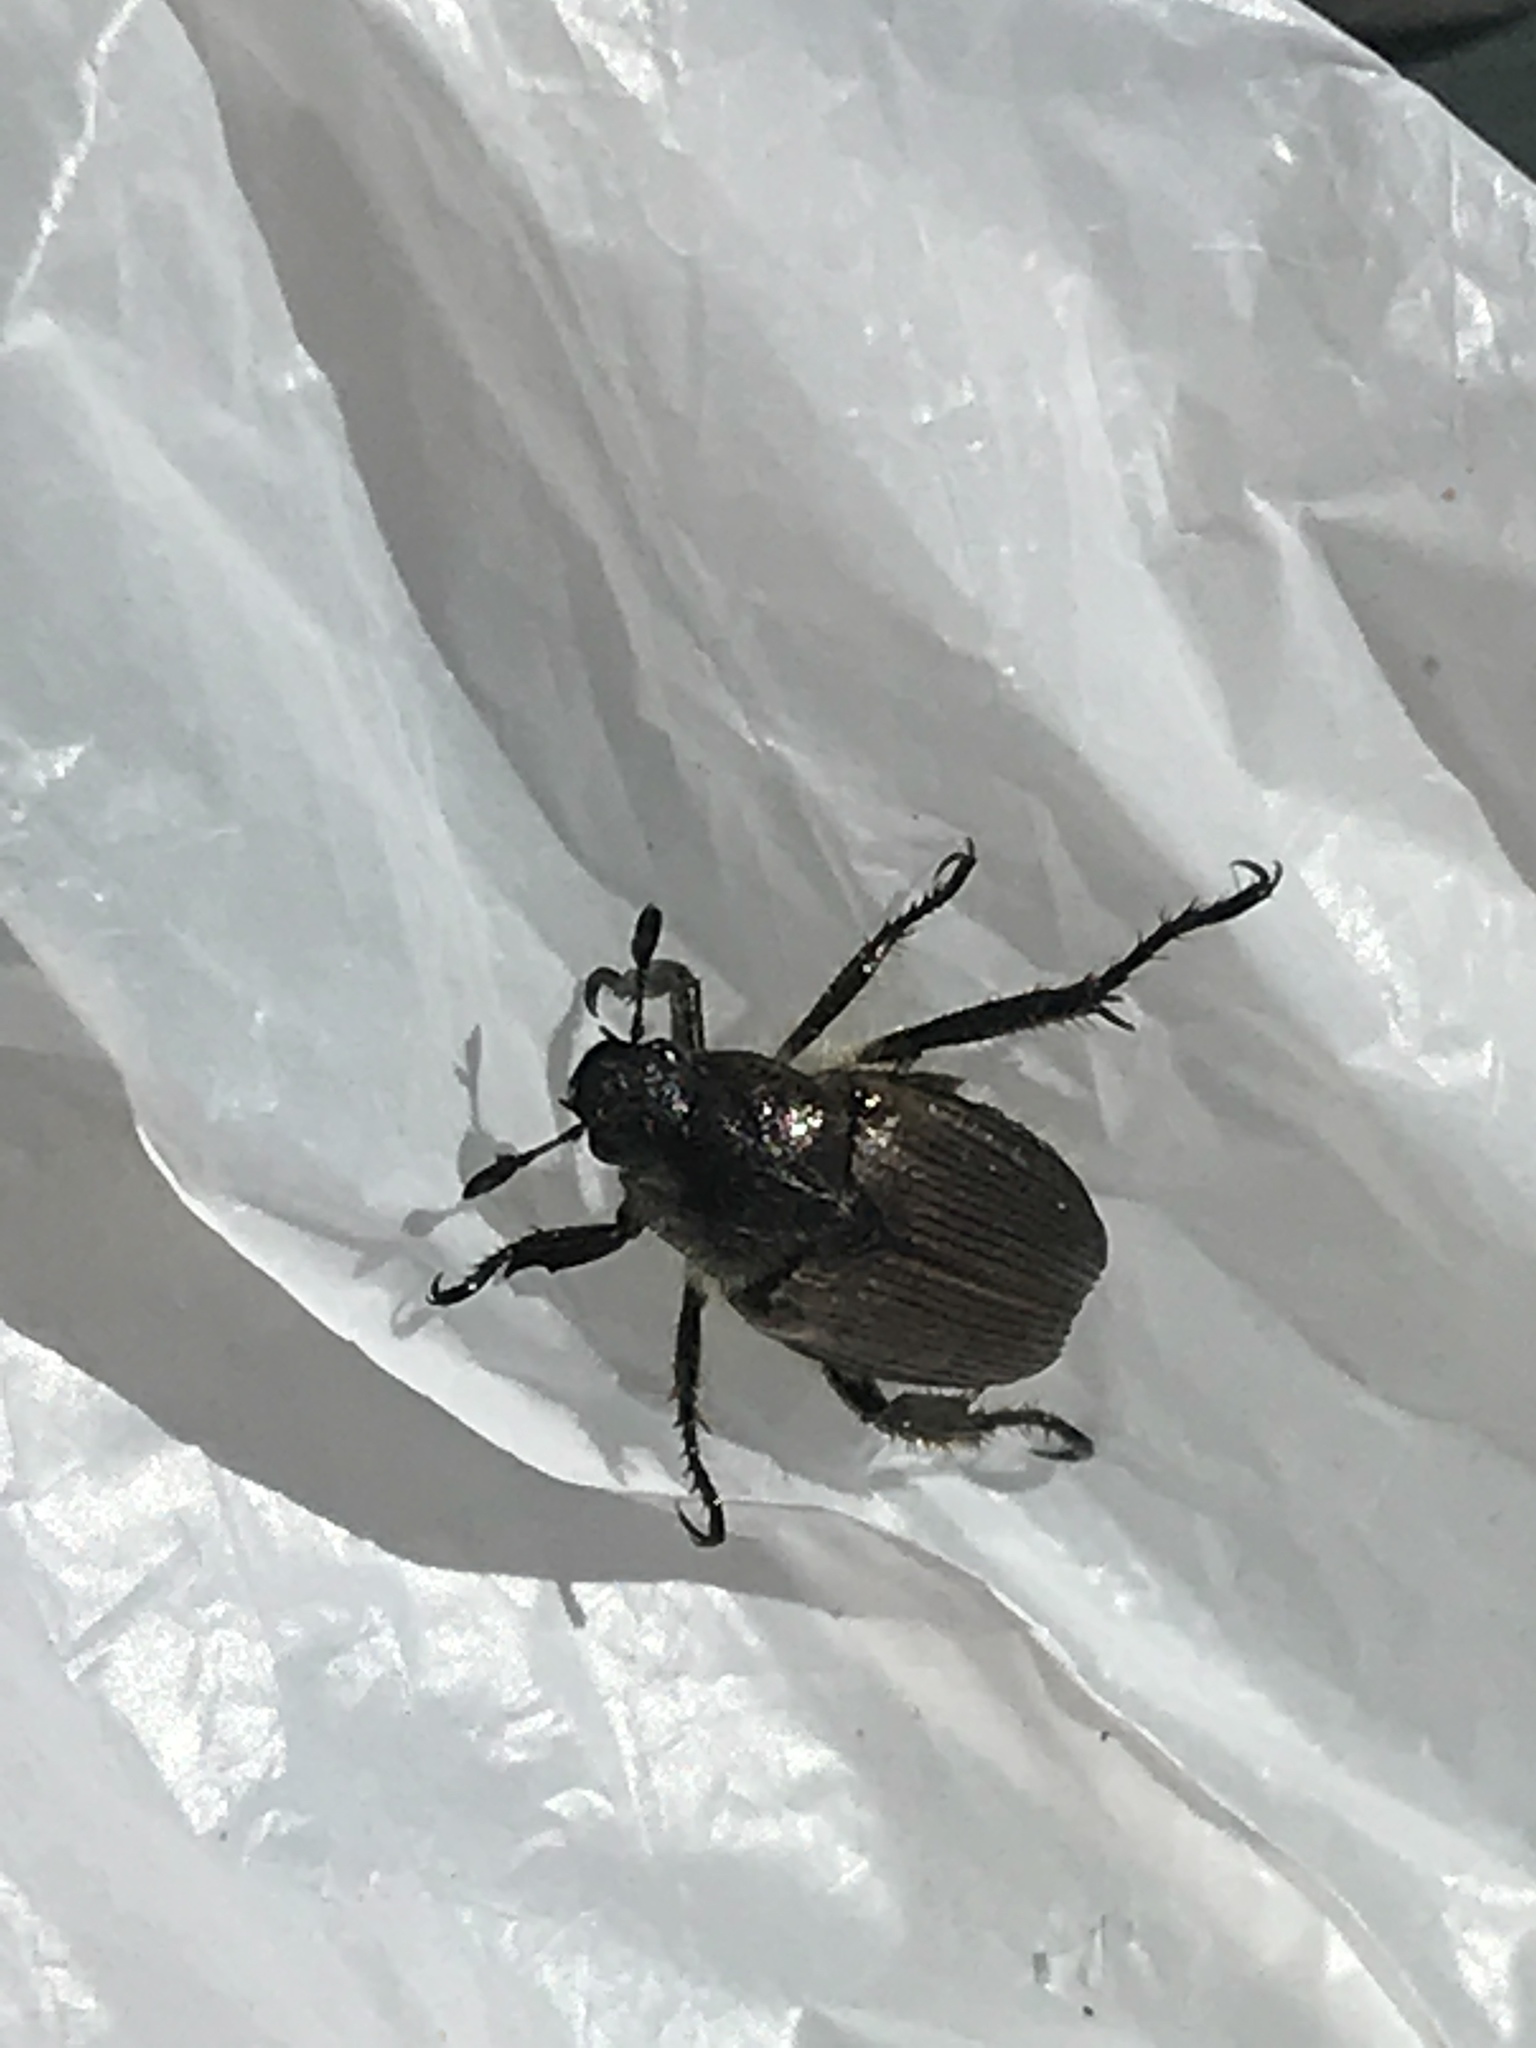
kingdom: Animalia
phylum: Arthropoda
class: Insecta
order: Coleoptera
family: Scarabaeidae
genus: Strigoderma
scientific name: Strigoderma arbicola
